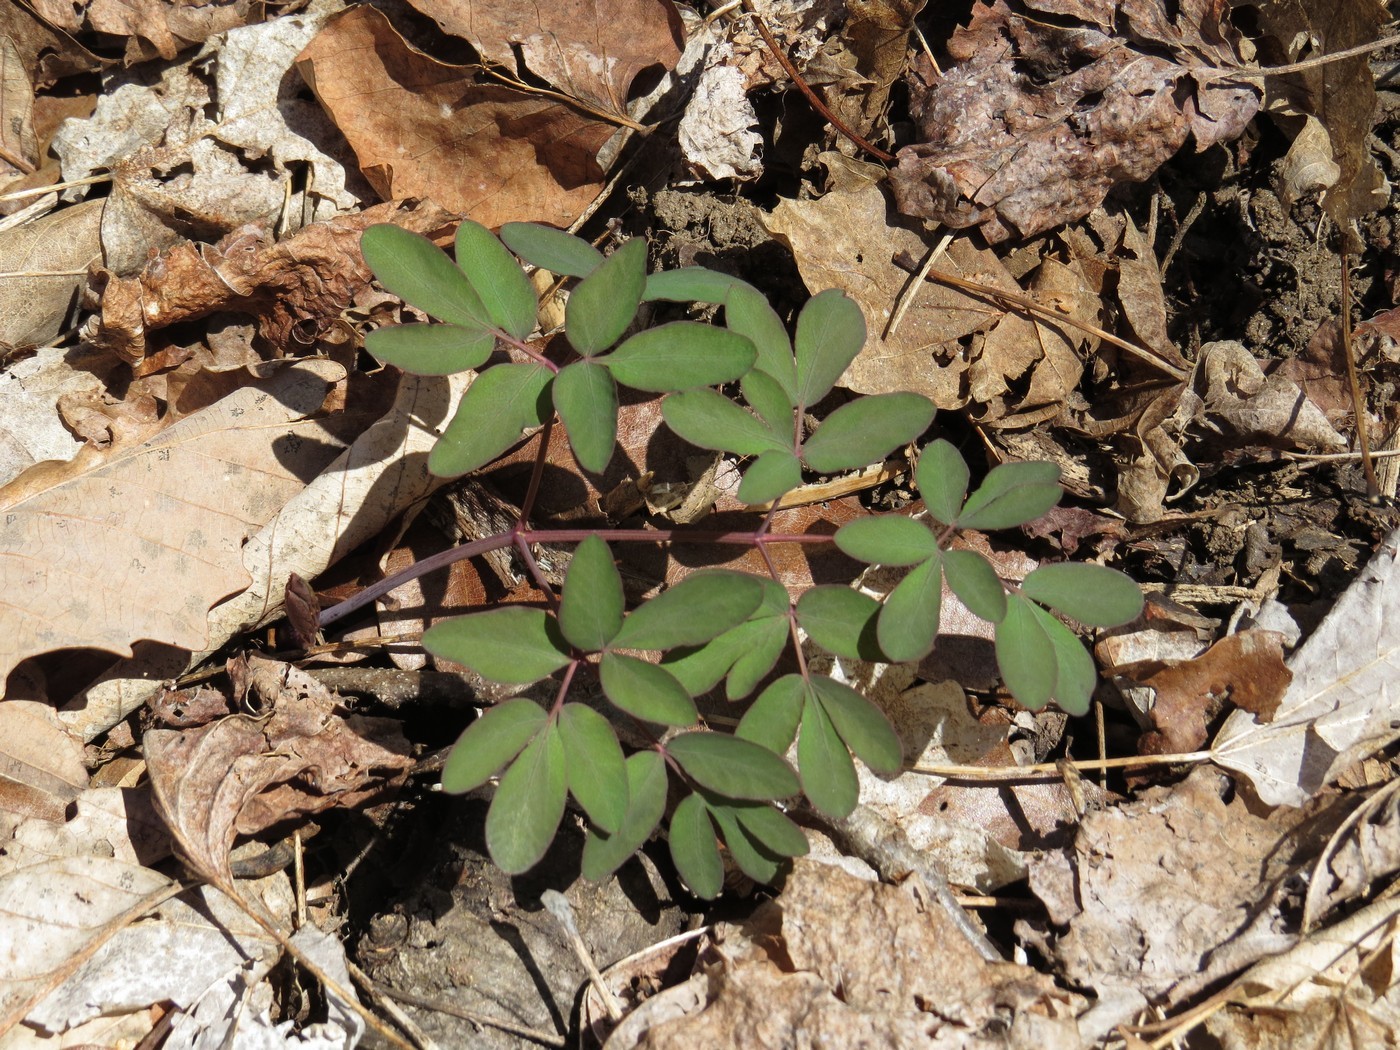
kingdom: Plantae
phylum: Tracheophyta
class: Magnoliopsida
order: Apiales
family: Apiaceae
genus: Taenidia
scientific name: Taenidia integerrima
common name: Golden alexander
